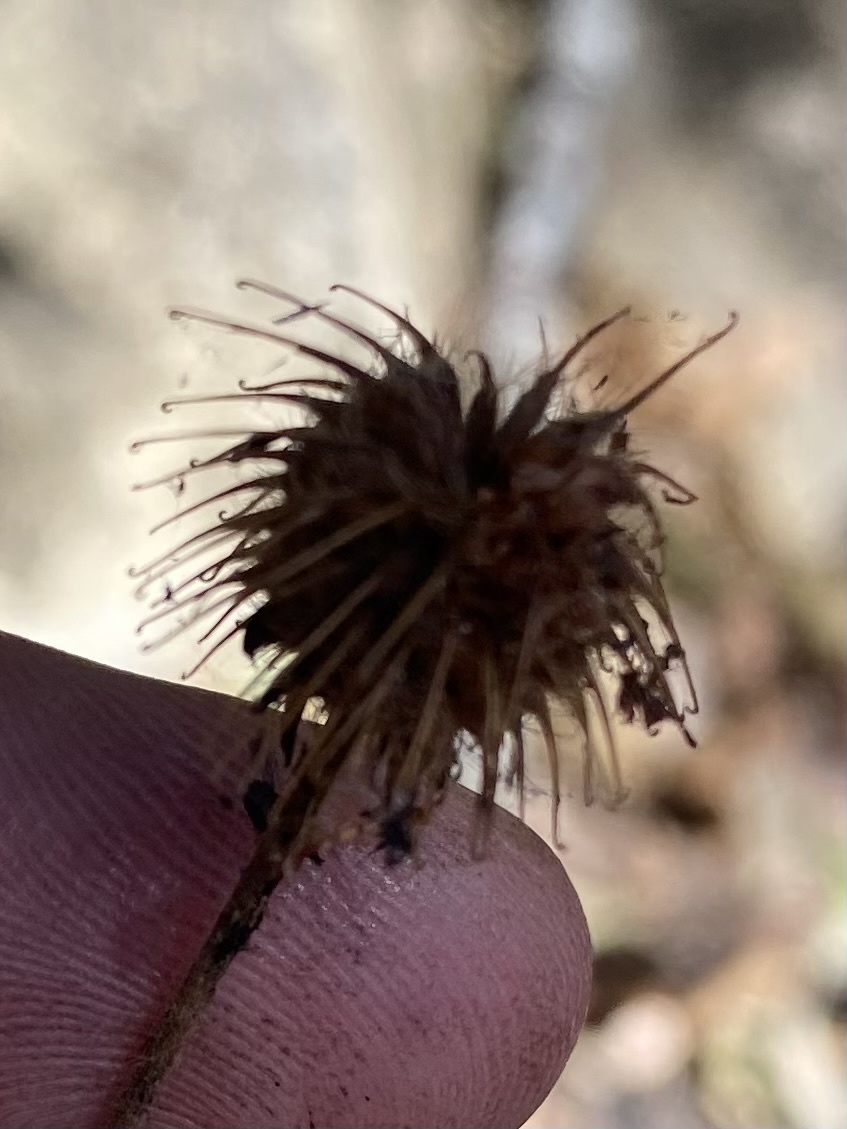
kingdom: Plantae
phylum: Tracheophyta
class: Magnoliopsida
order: Rosales
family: Rosaceae
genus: Geum
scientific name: Geum urbanum
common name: Wood avens
